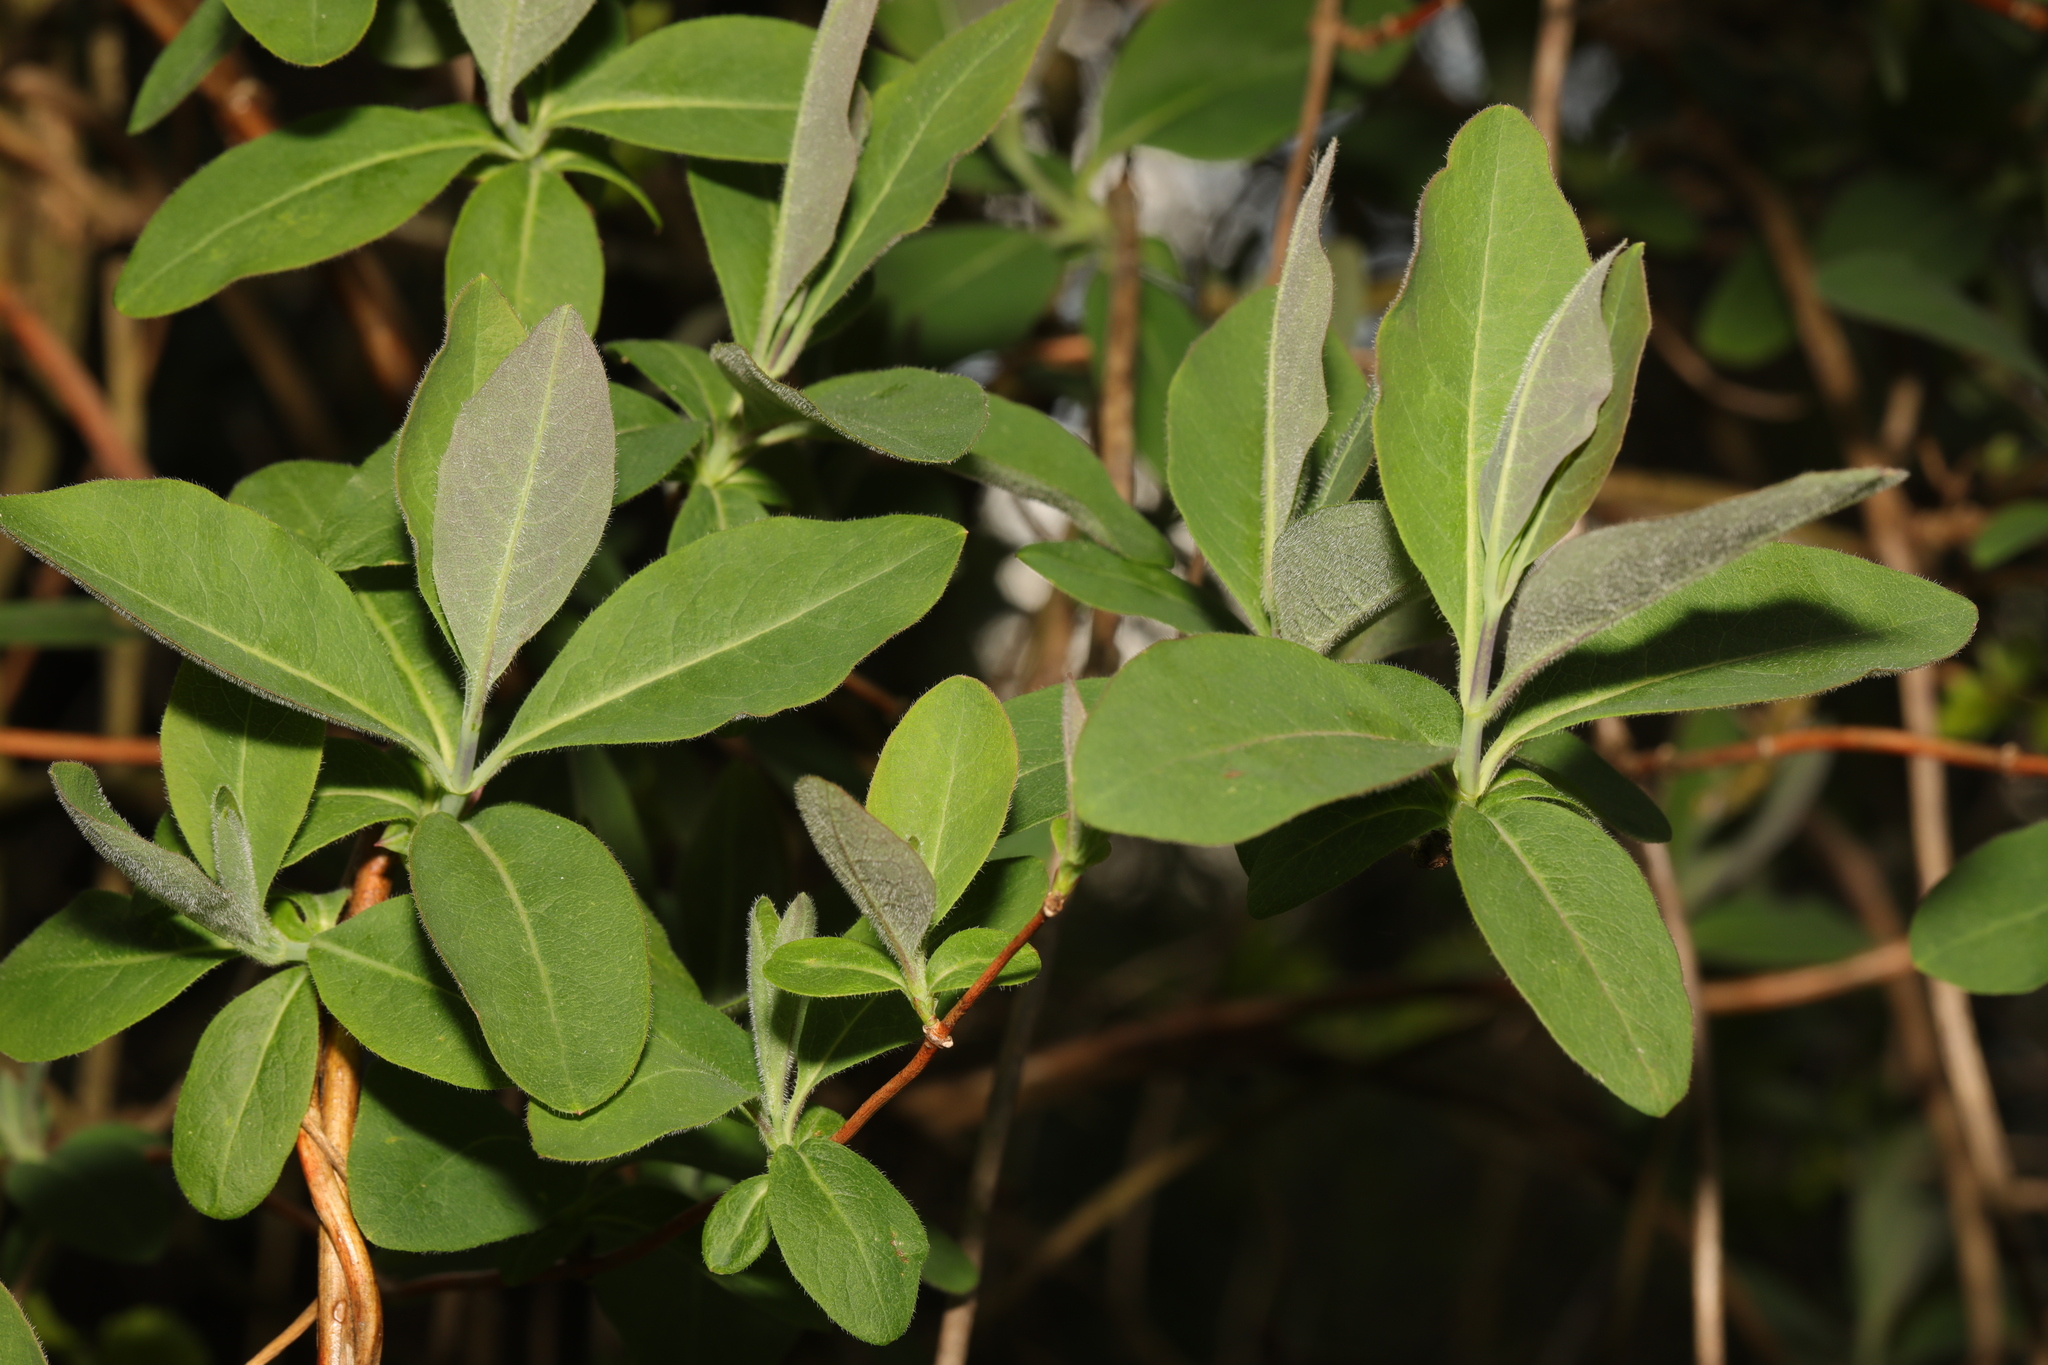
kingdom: Plantae
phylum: Tracheophyta
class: Magnoliopsida
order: Dipsacales
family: Caprifoliaceae
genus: Lonicera
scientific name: Lonicera periclymenum
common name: European honeysuckle
